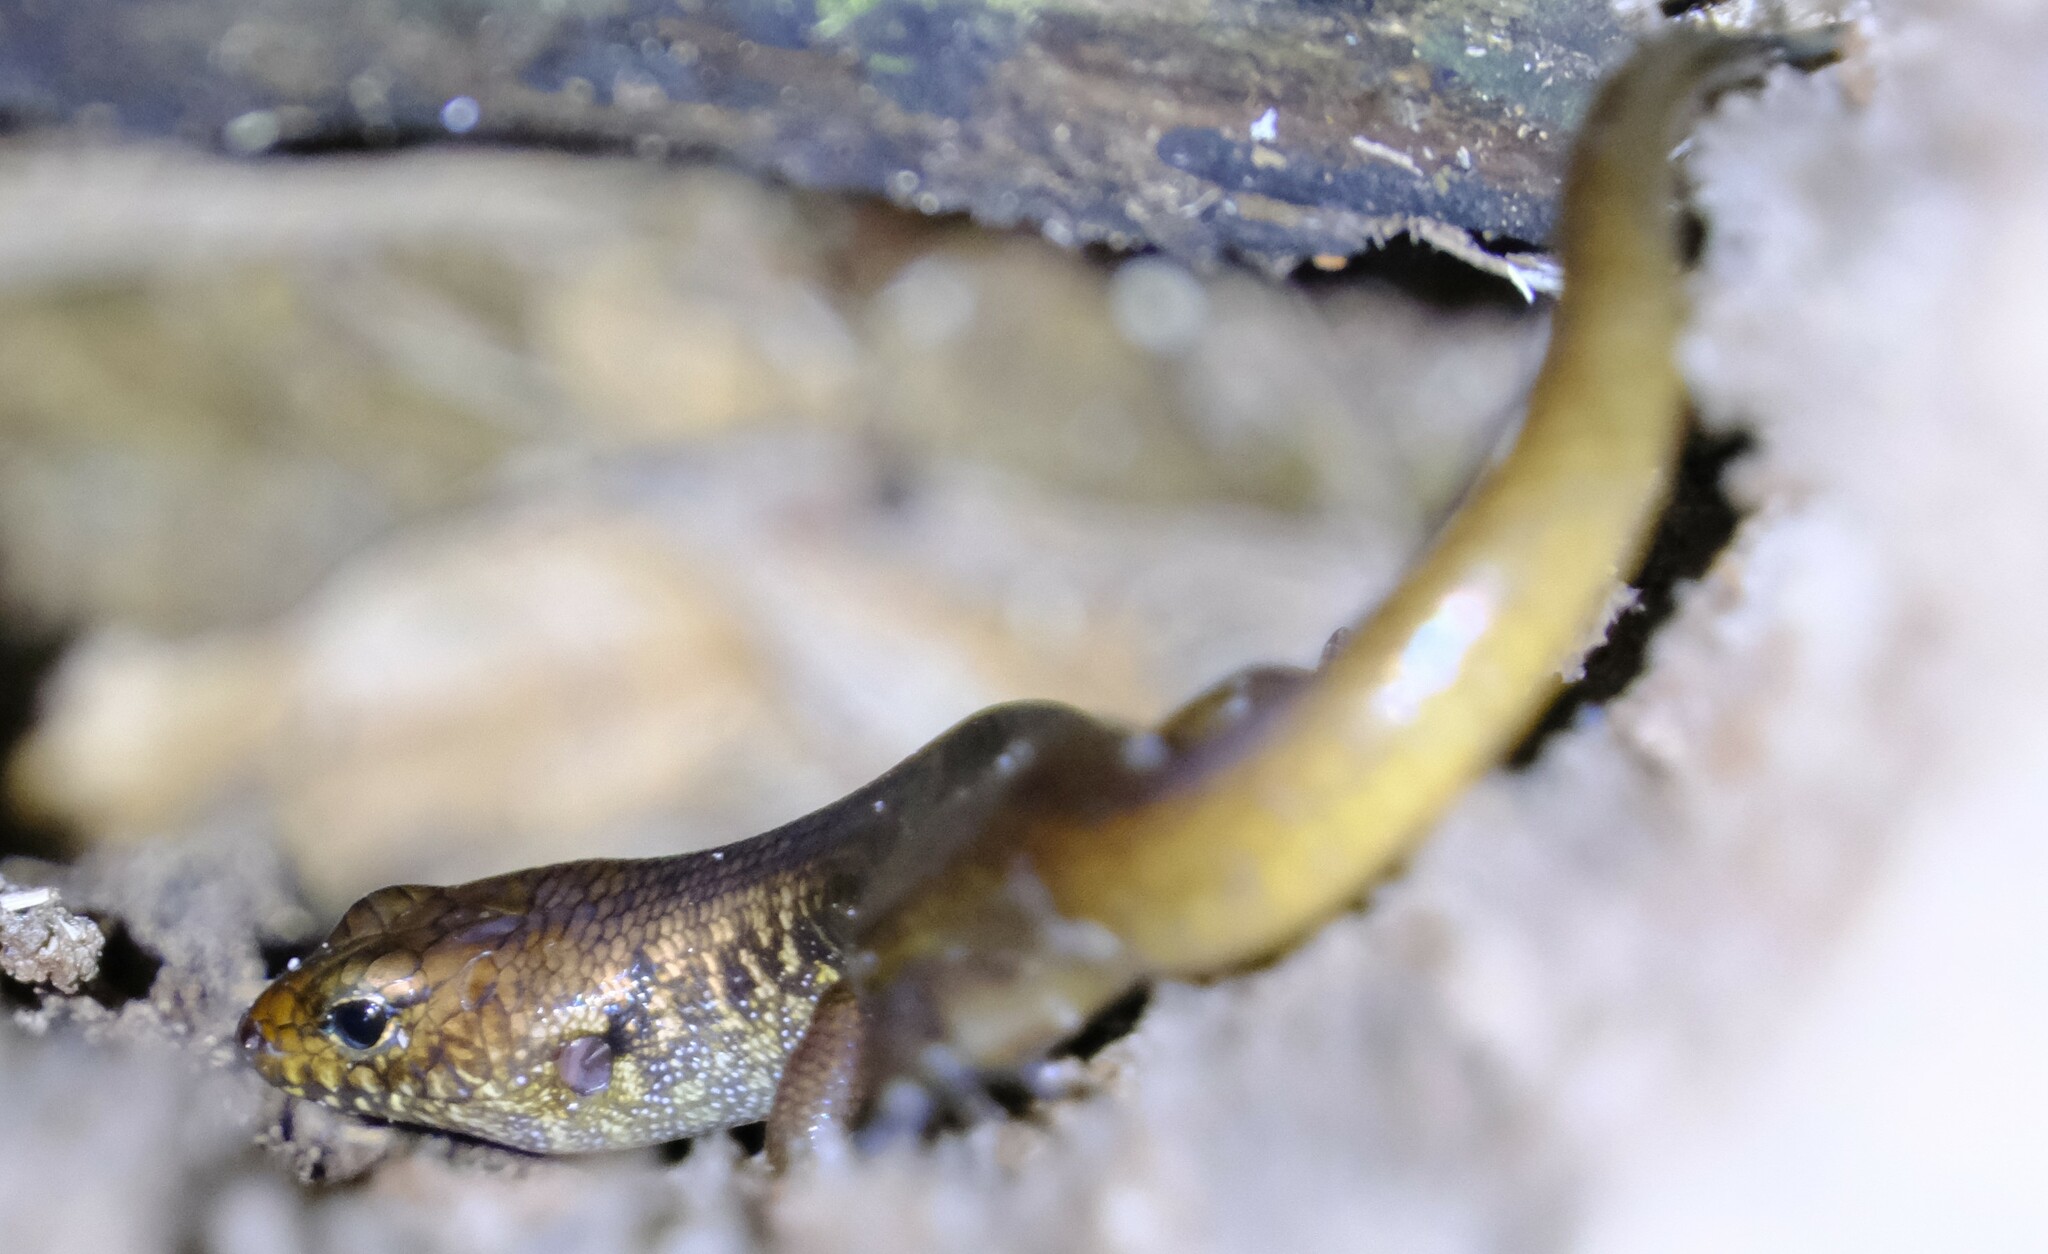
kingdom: Animalia
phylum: Chordata
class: Squamata
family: Scincidae
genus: Silvascincus
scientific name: Silvascincus murrayi
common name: Blue-speckled forest-skink
